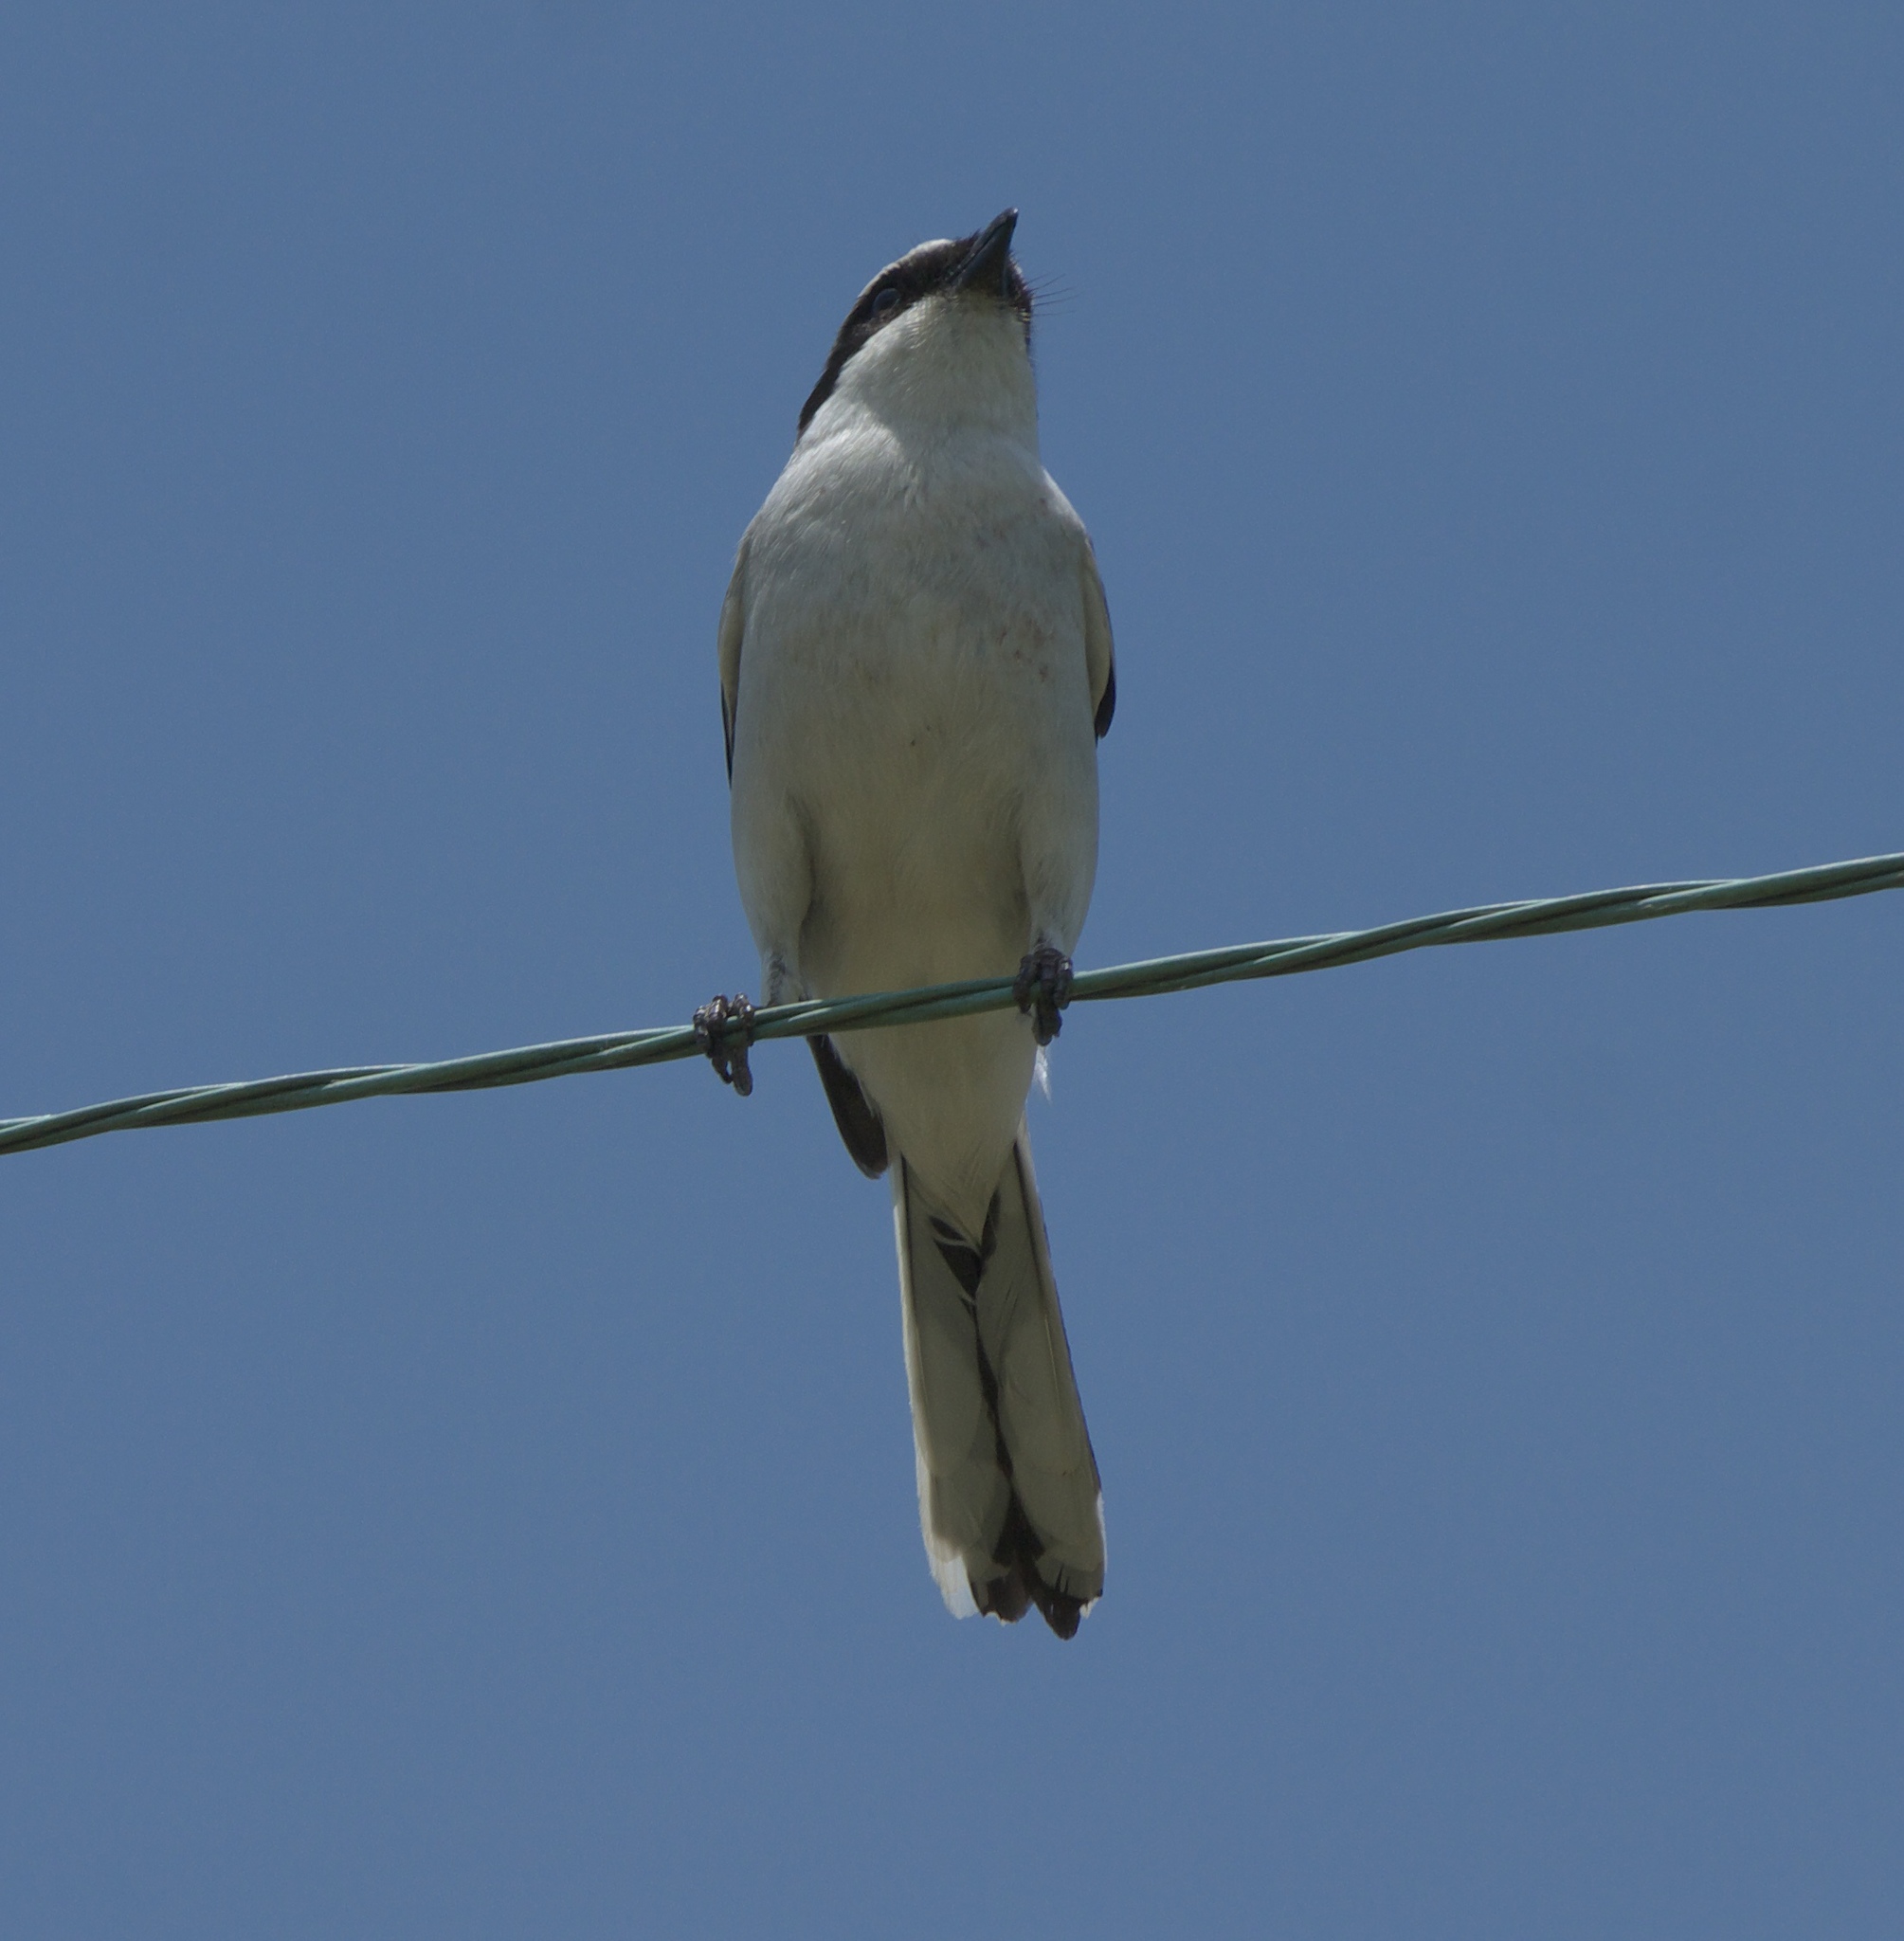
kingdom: Animalia
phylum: Chordata
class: Aves
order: Passeriformes
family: Laniidae
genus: Lanius
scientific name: Lanius ludovicianus
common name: Loggerhead shrike
